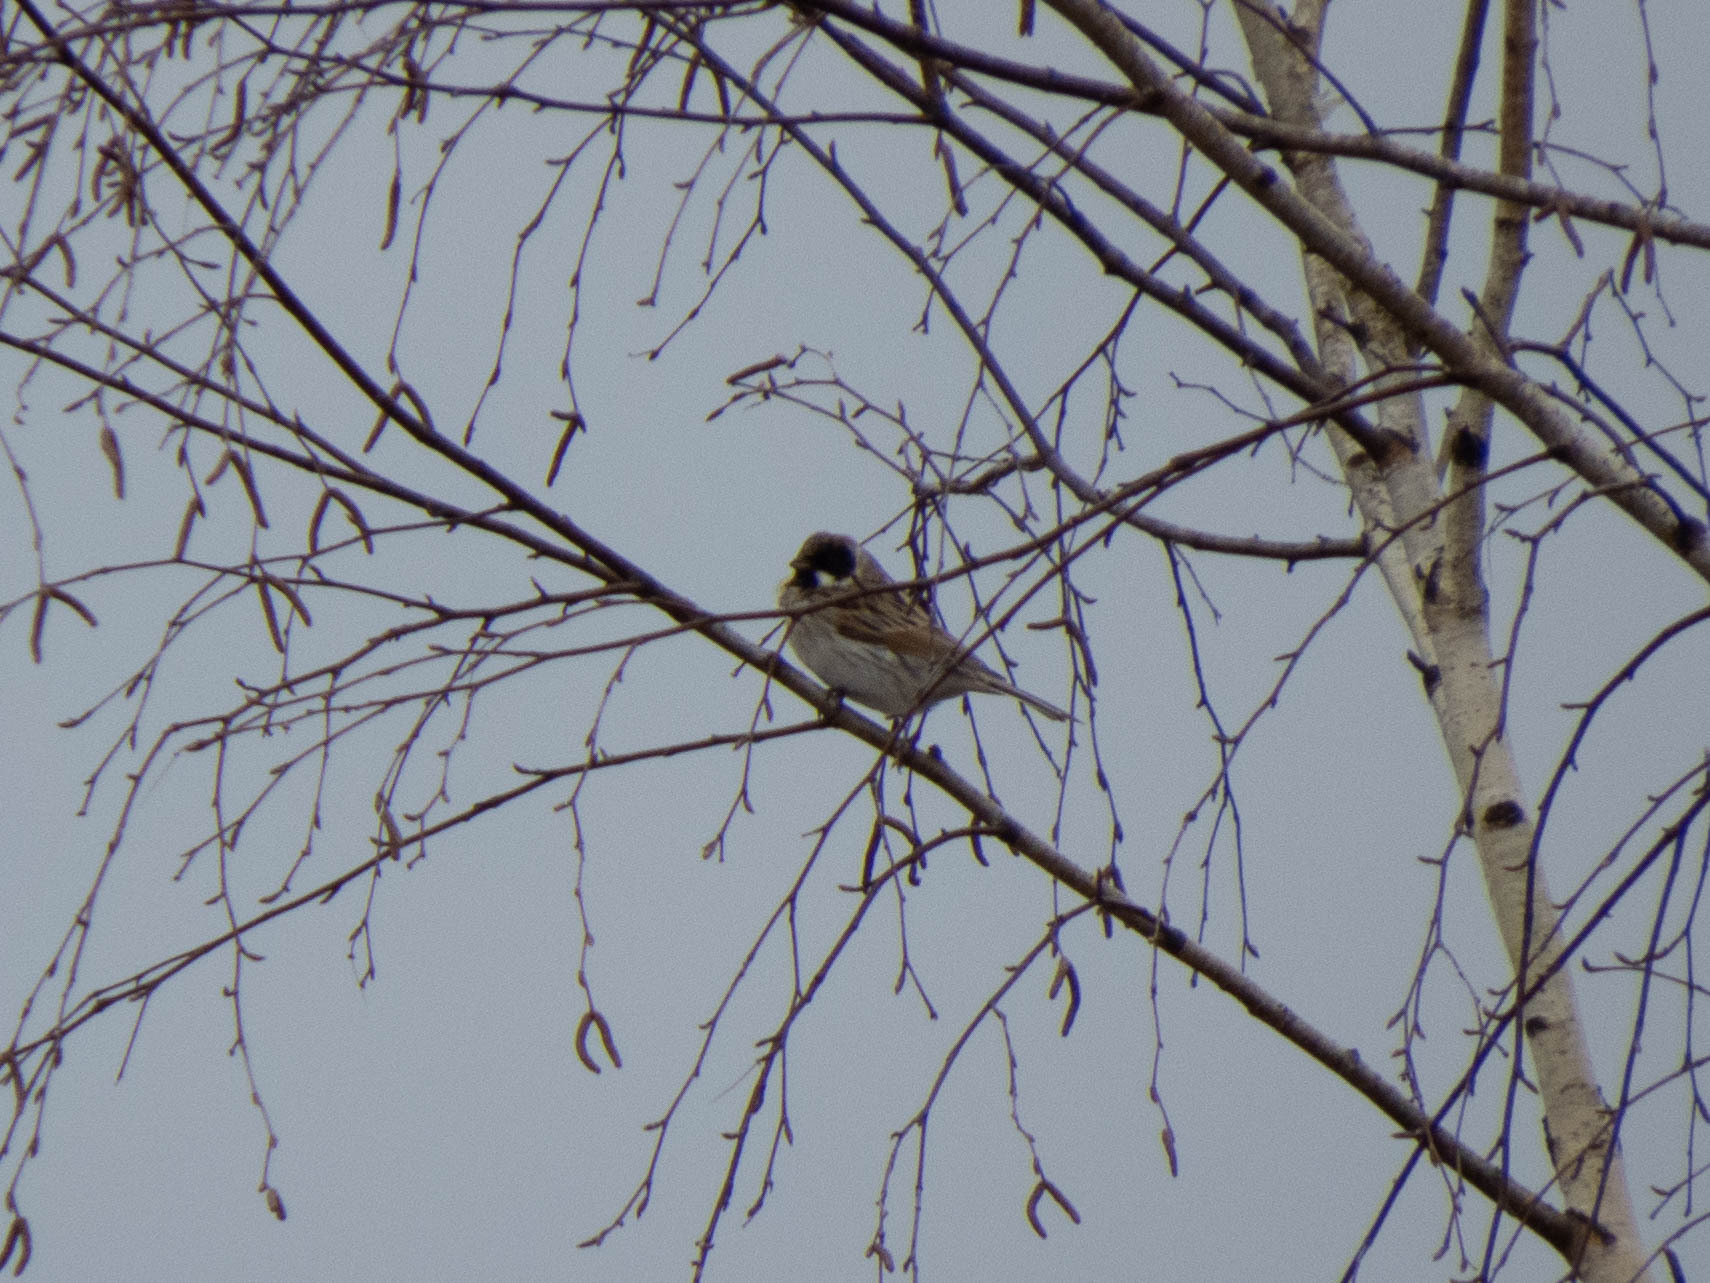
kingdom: Animalia
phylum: Chordata
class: Aves
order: Passeriformes
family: Emberizidae
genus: Emberiza
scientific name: Emberiza schoeniclus
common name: Reed bunting
